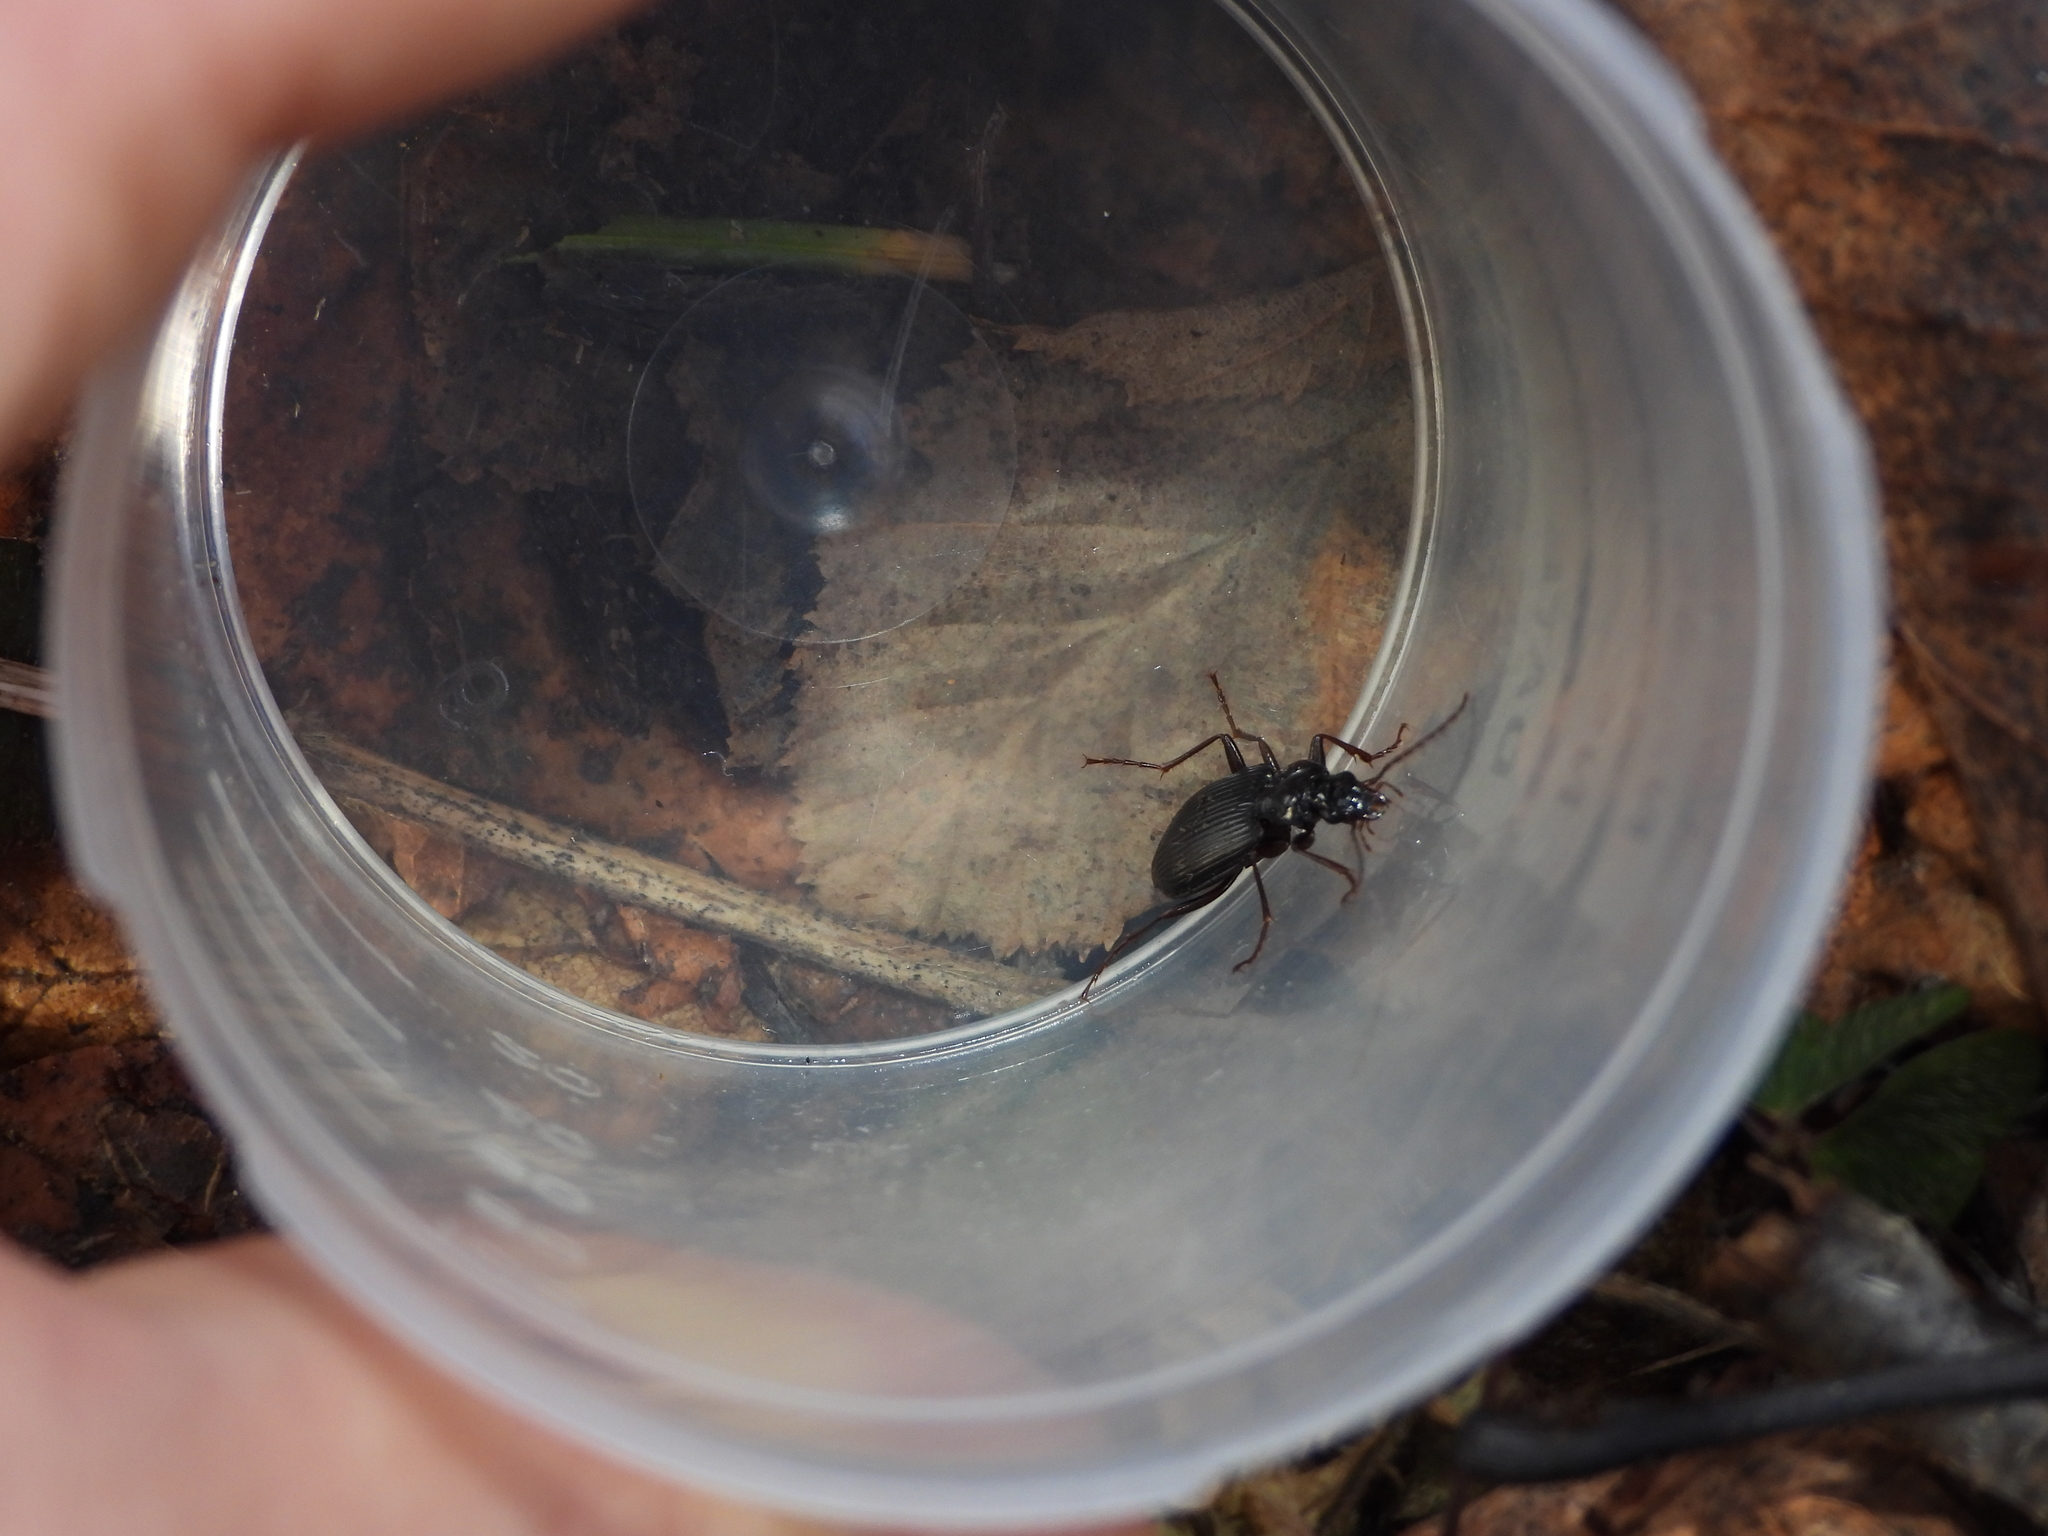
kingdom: Animalia
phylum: Arthropoda
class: Insecta
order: Coleoptera
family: Carabidae
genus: Platynus
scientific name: Platynus assimilis
